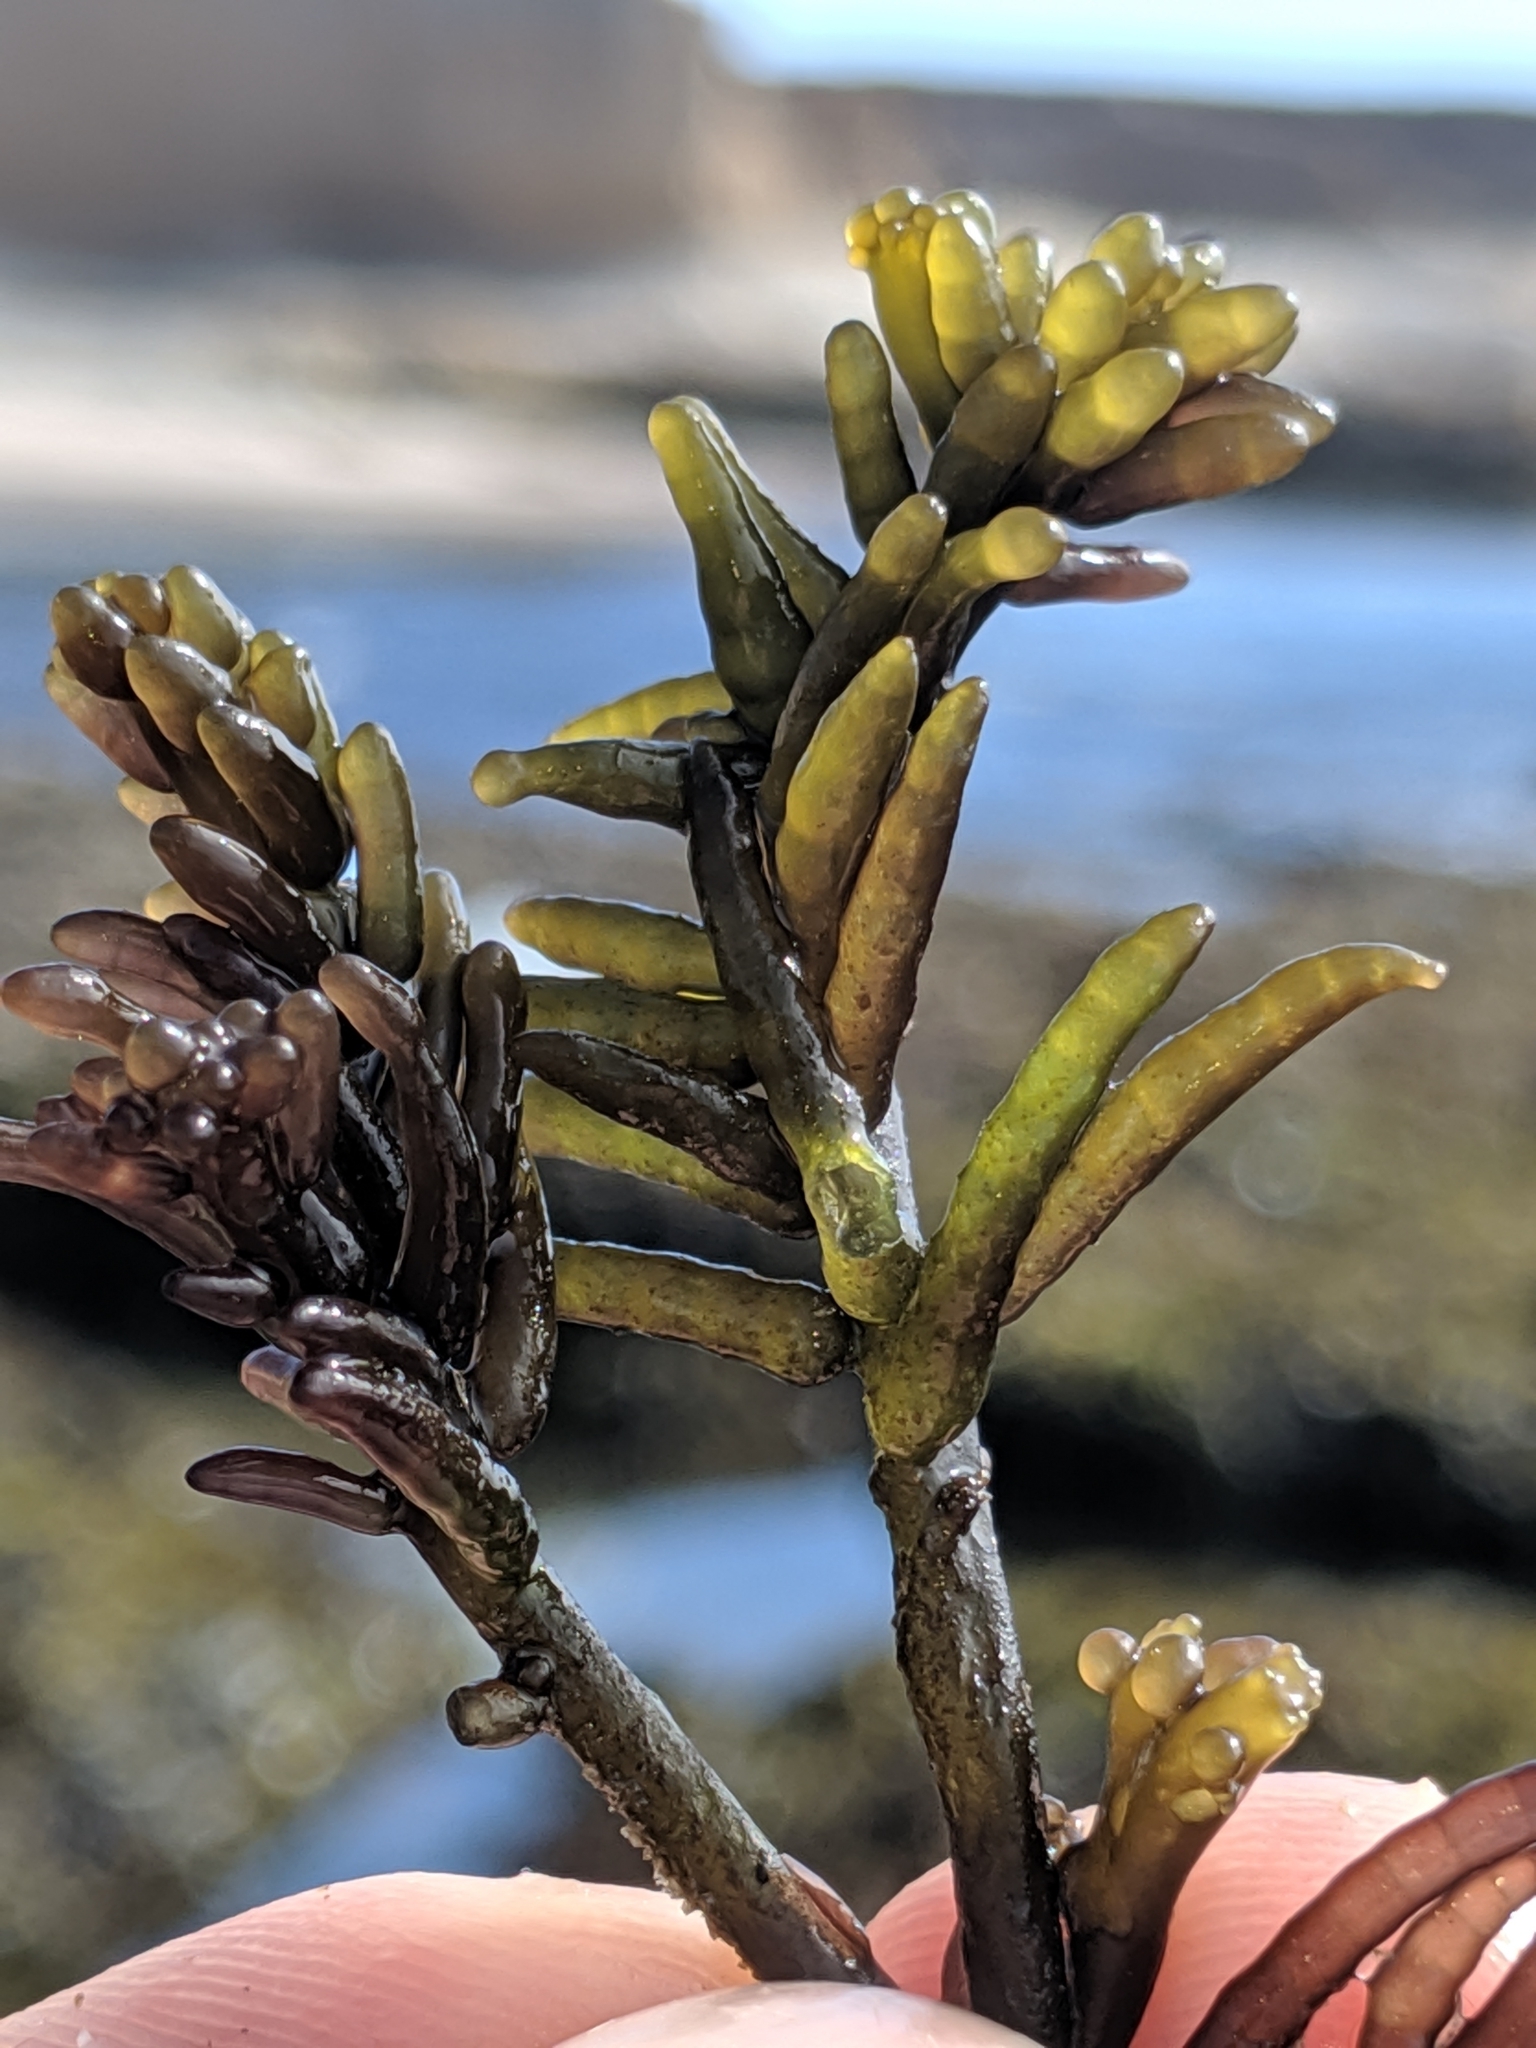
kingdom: Plantae
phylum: Rhodophyta
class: Florideophyceae
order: Rhodymeniales
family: Champiaceae
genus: Neogastroclonium
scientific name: Neogastroclonium subarticulatum
